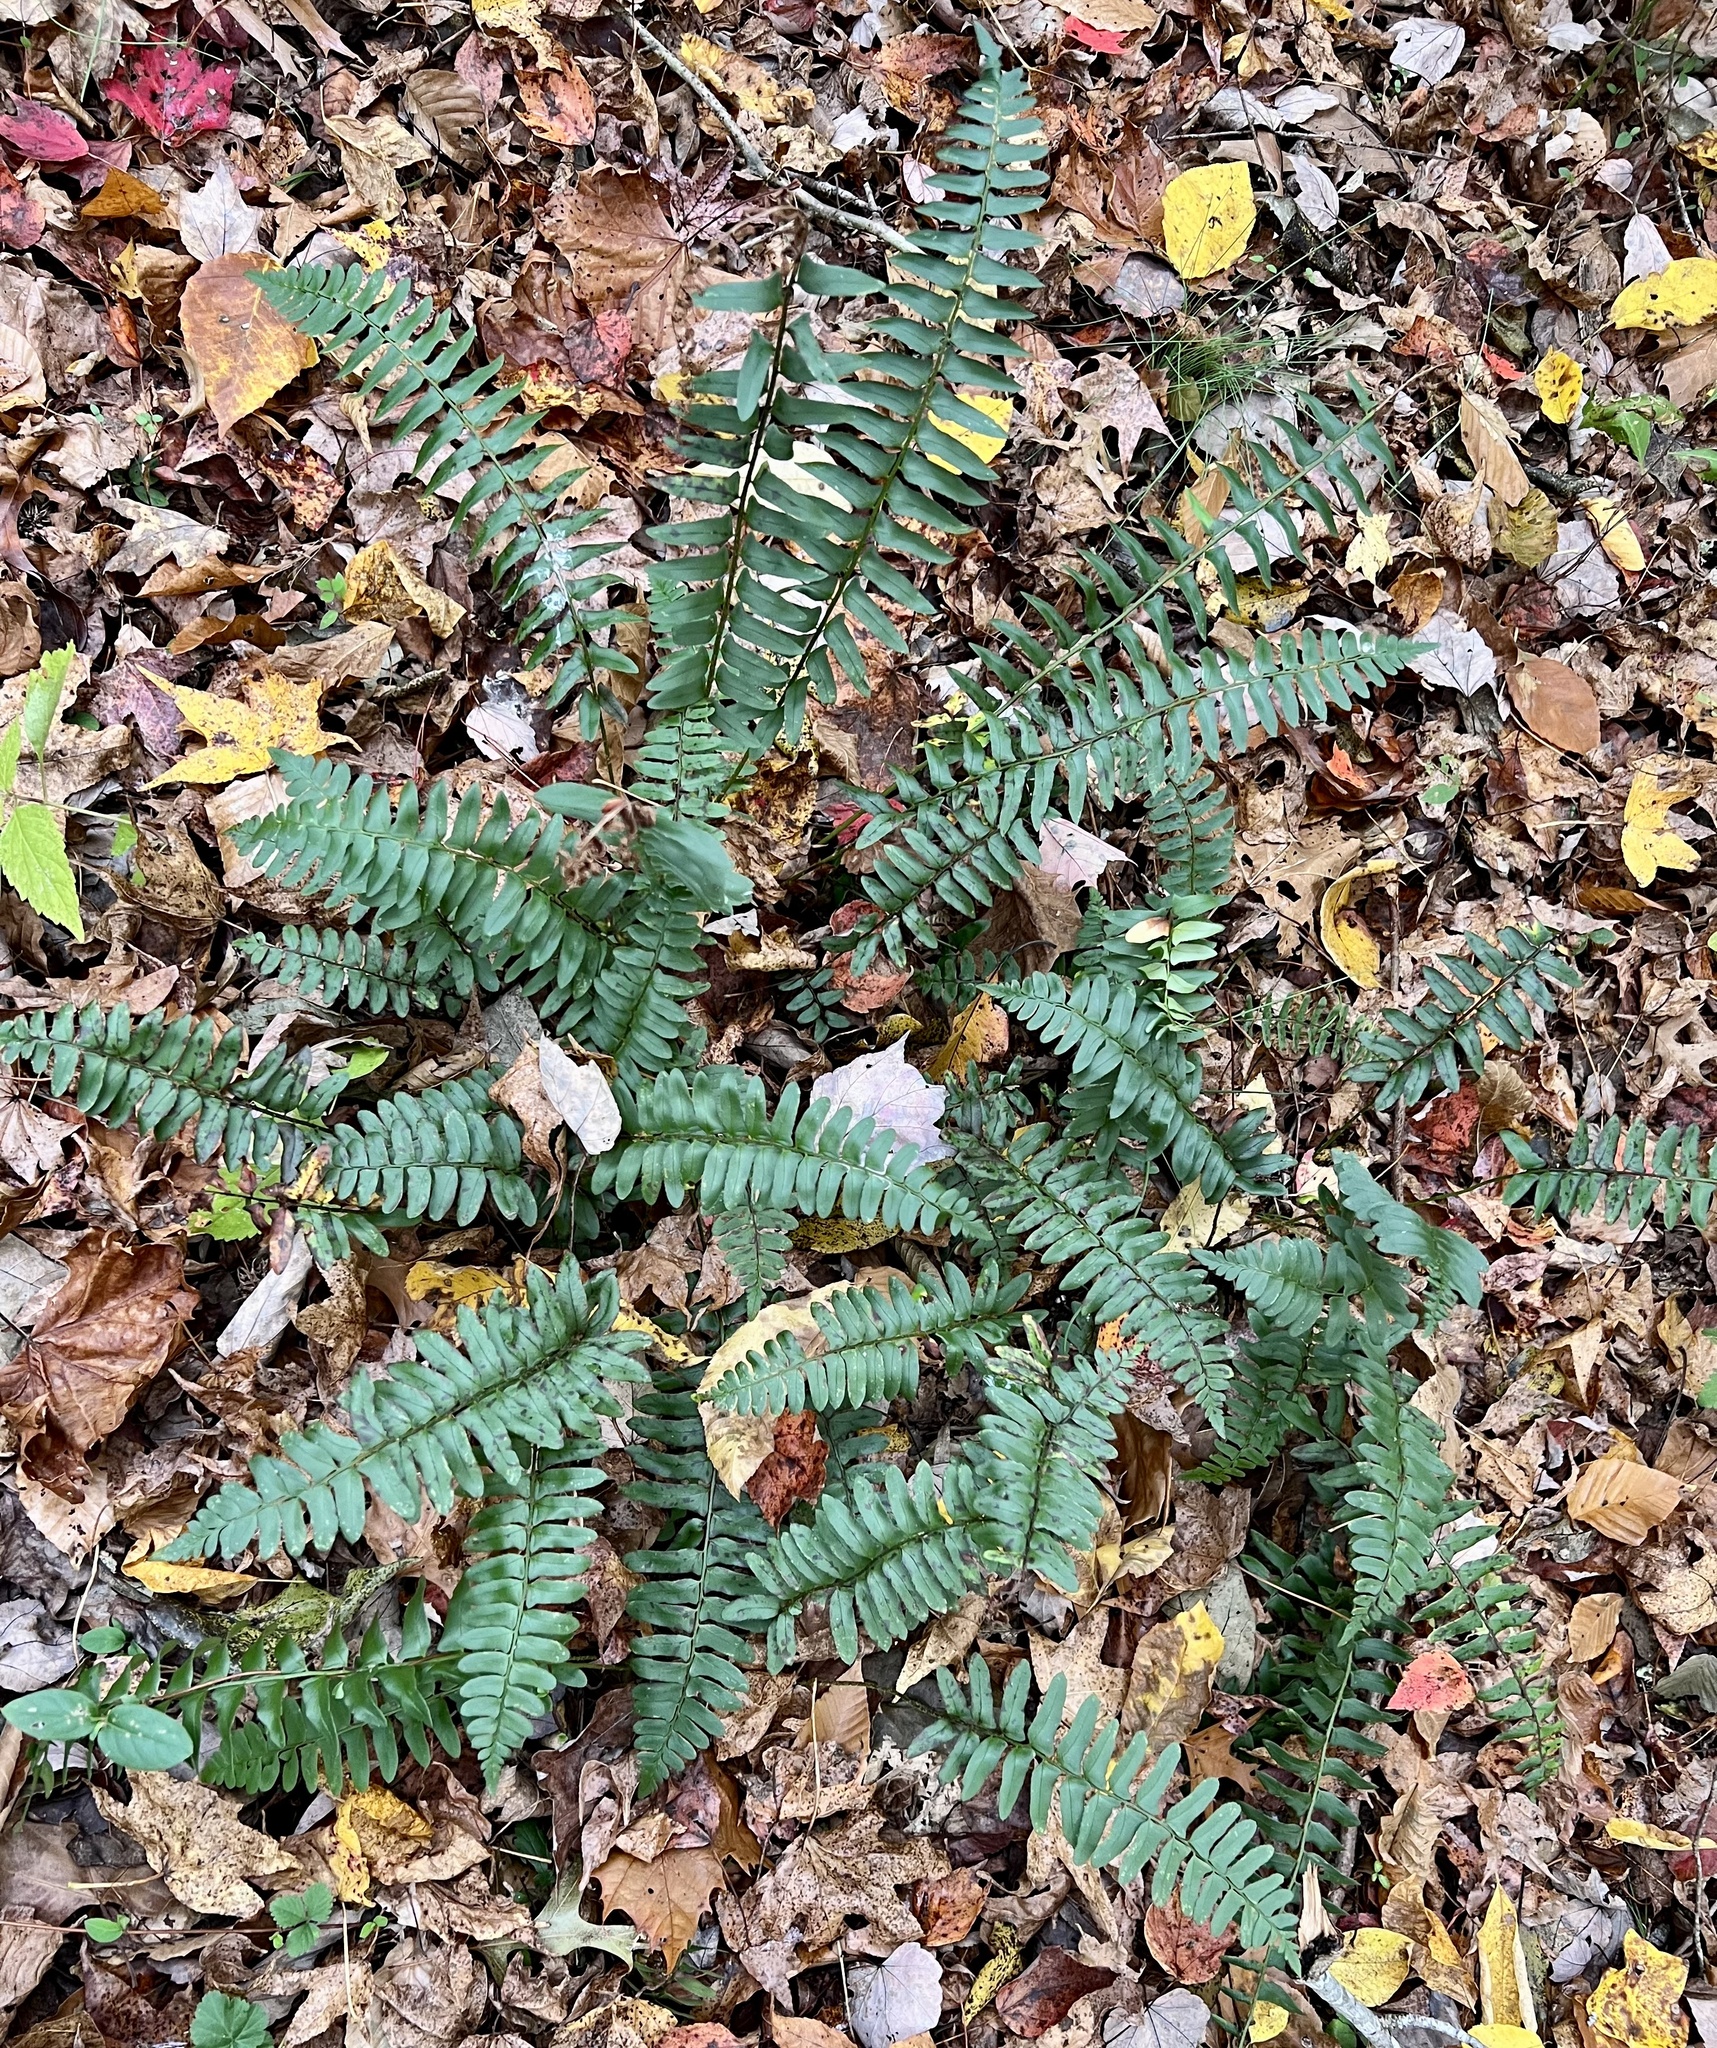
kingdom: Plantae
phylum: Tracheophyta
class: Polypodiopsida
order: Polypodiales
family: Dryopteridaceae
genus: Polystichum
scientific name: Polystichum acrostichoides
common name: Christmas fern
